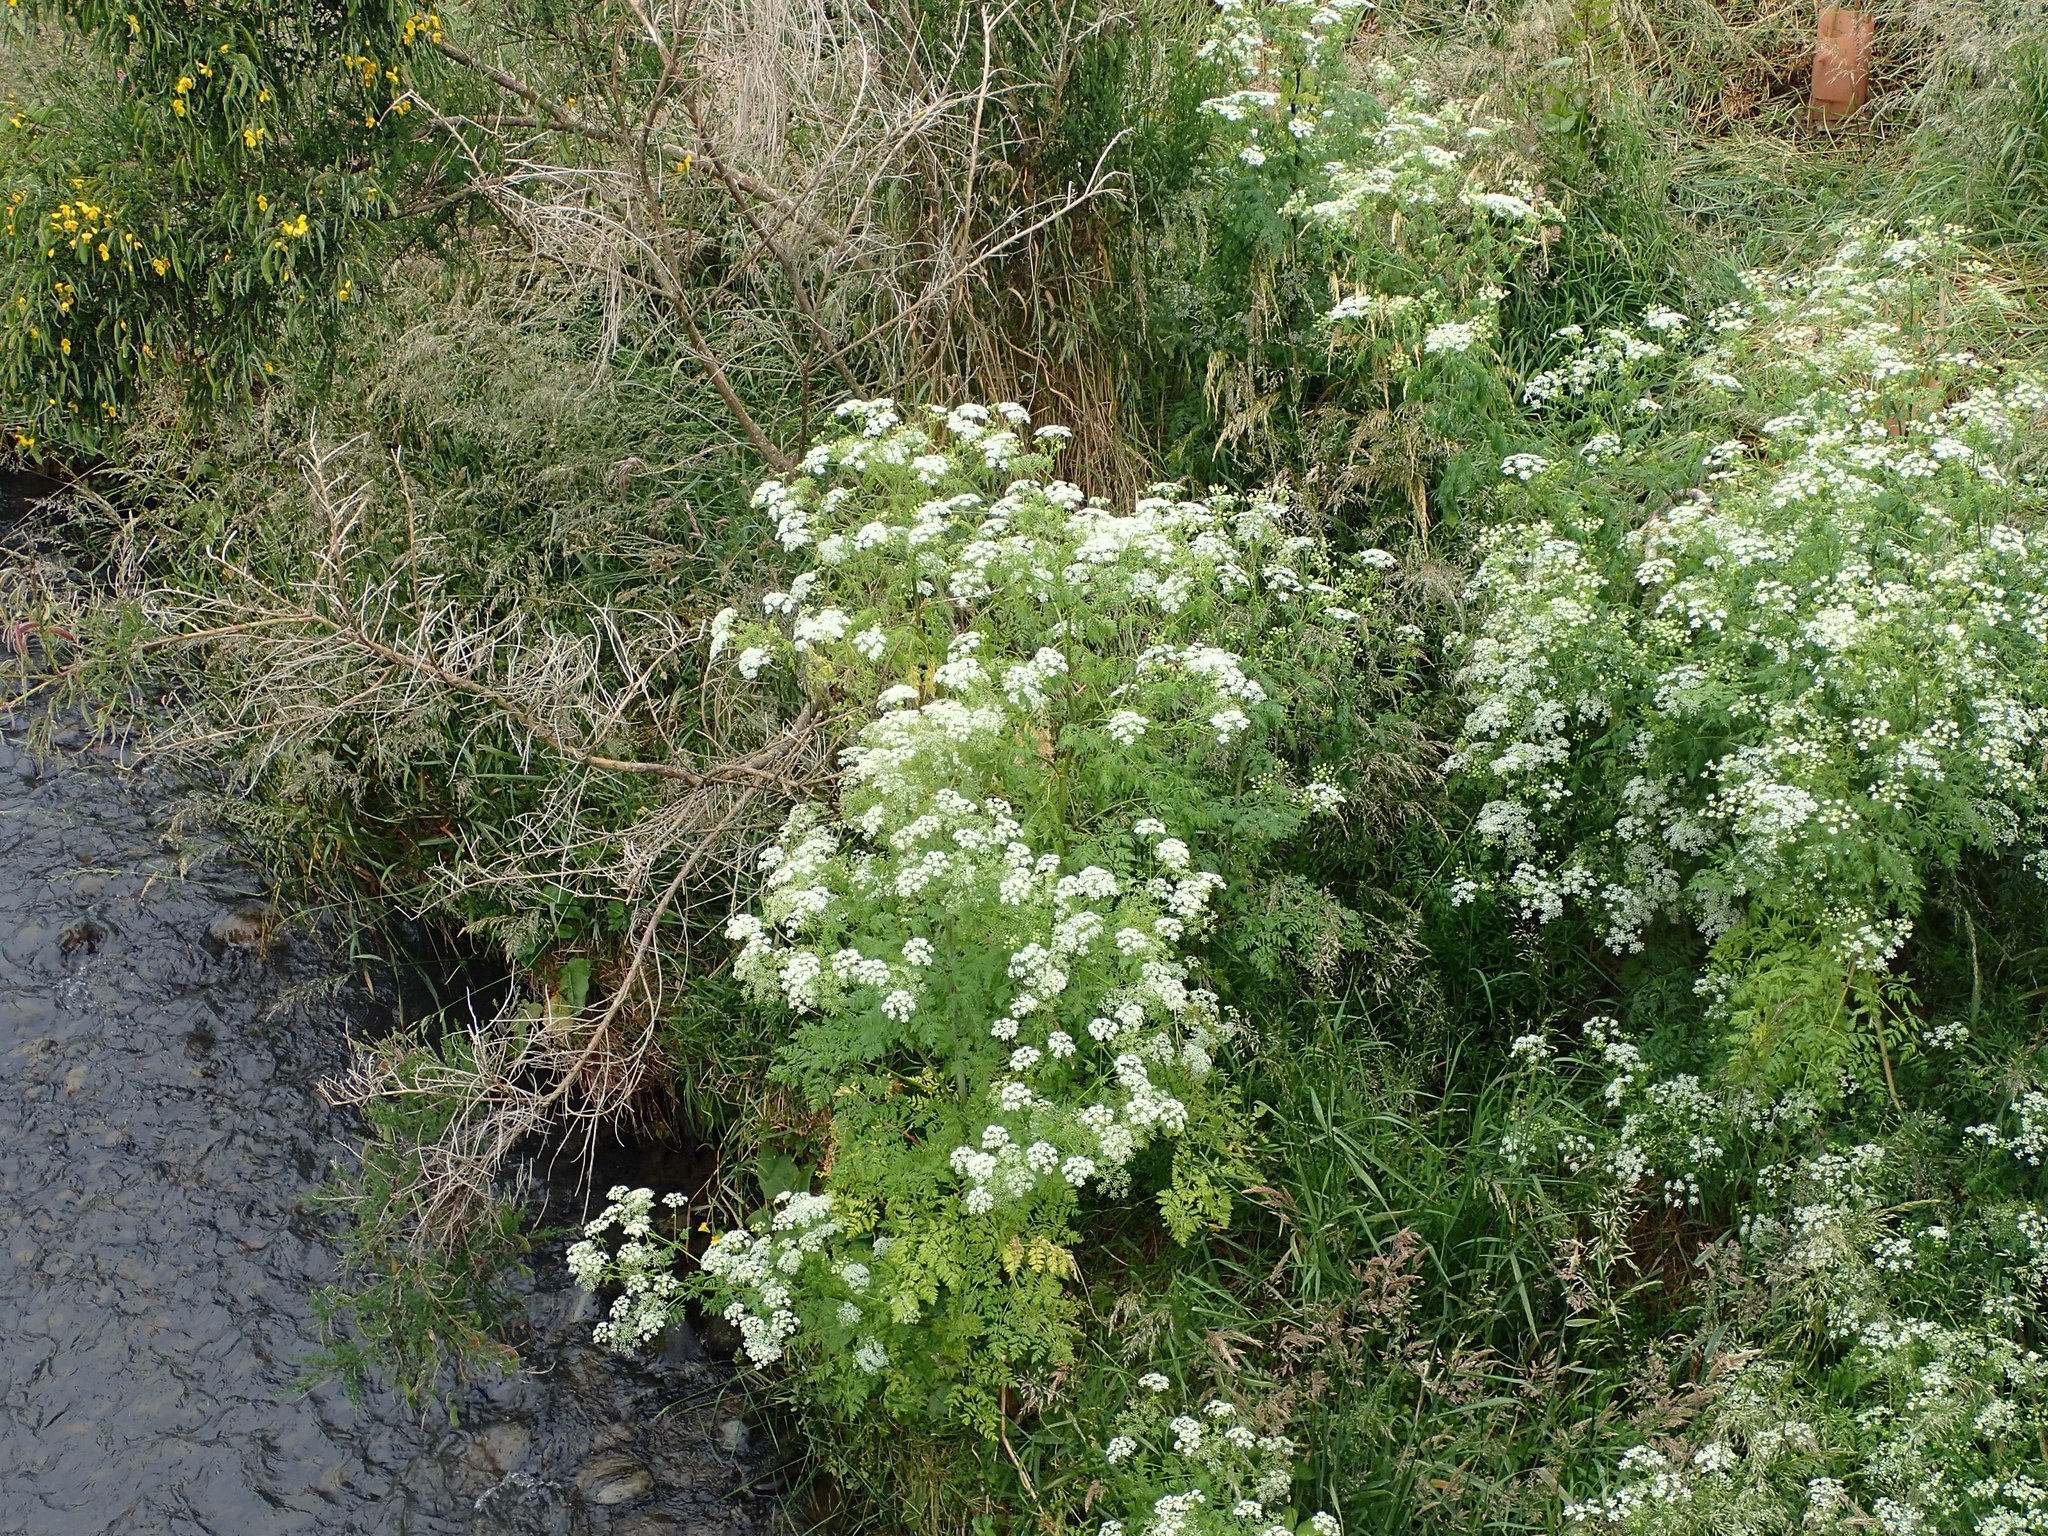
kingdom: Plantae
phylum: Tracheophyta
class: Magnoliopsida
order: Apiales
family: Apiaceae
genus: Conium
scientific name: Conium maculatum
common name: Hemlock
